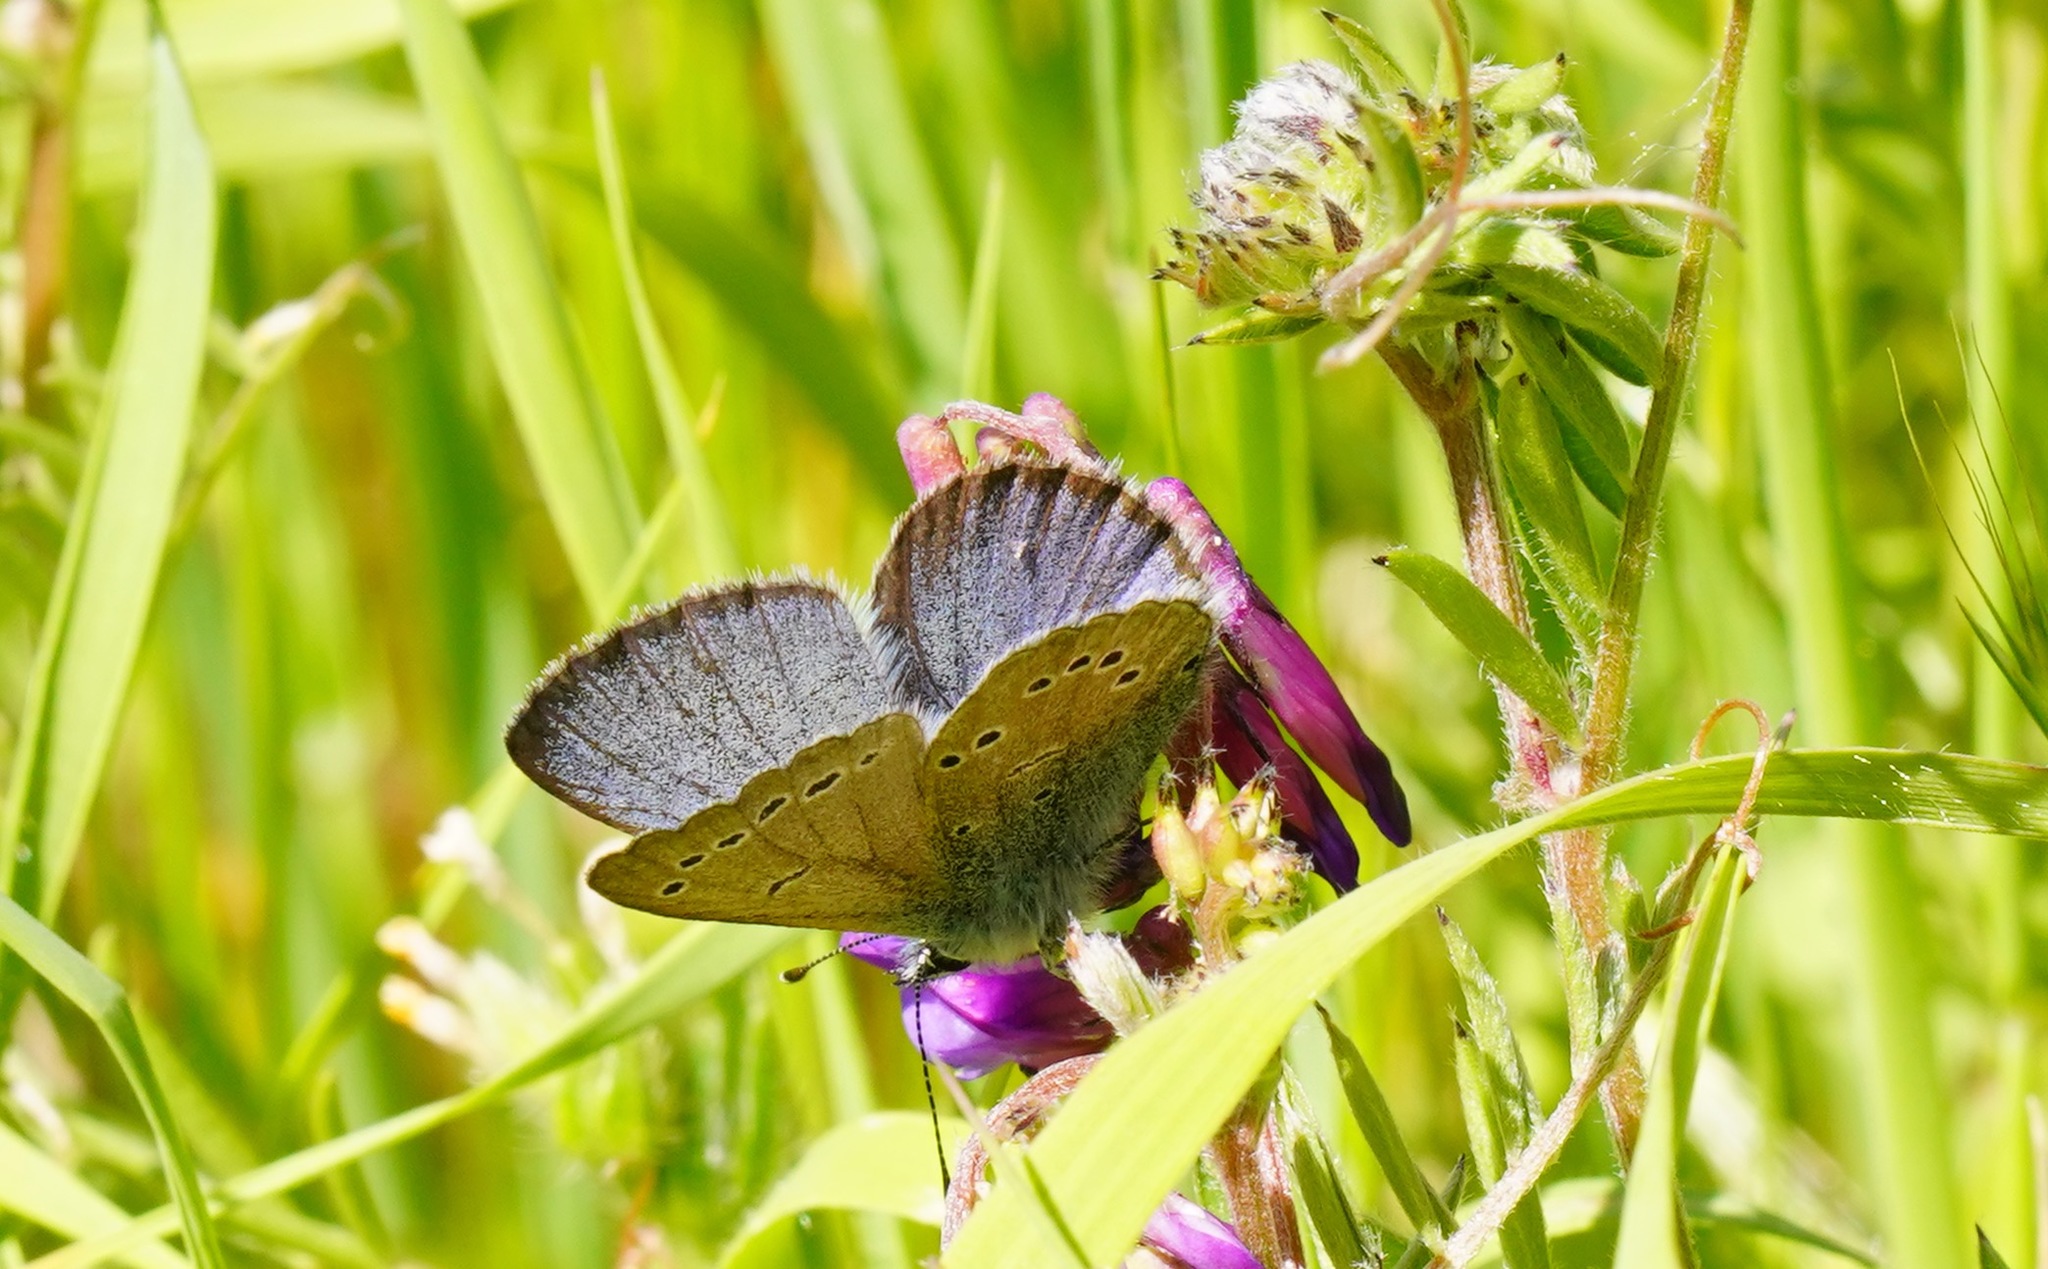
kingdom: Animalia
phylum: Arthropoda
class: Insecta
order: Lepidoptera
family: Lycaenidae
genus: Glaucopsyche
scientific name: Glaucopsyche lygdamus
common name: Silvery blue
